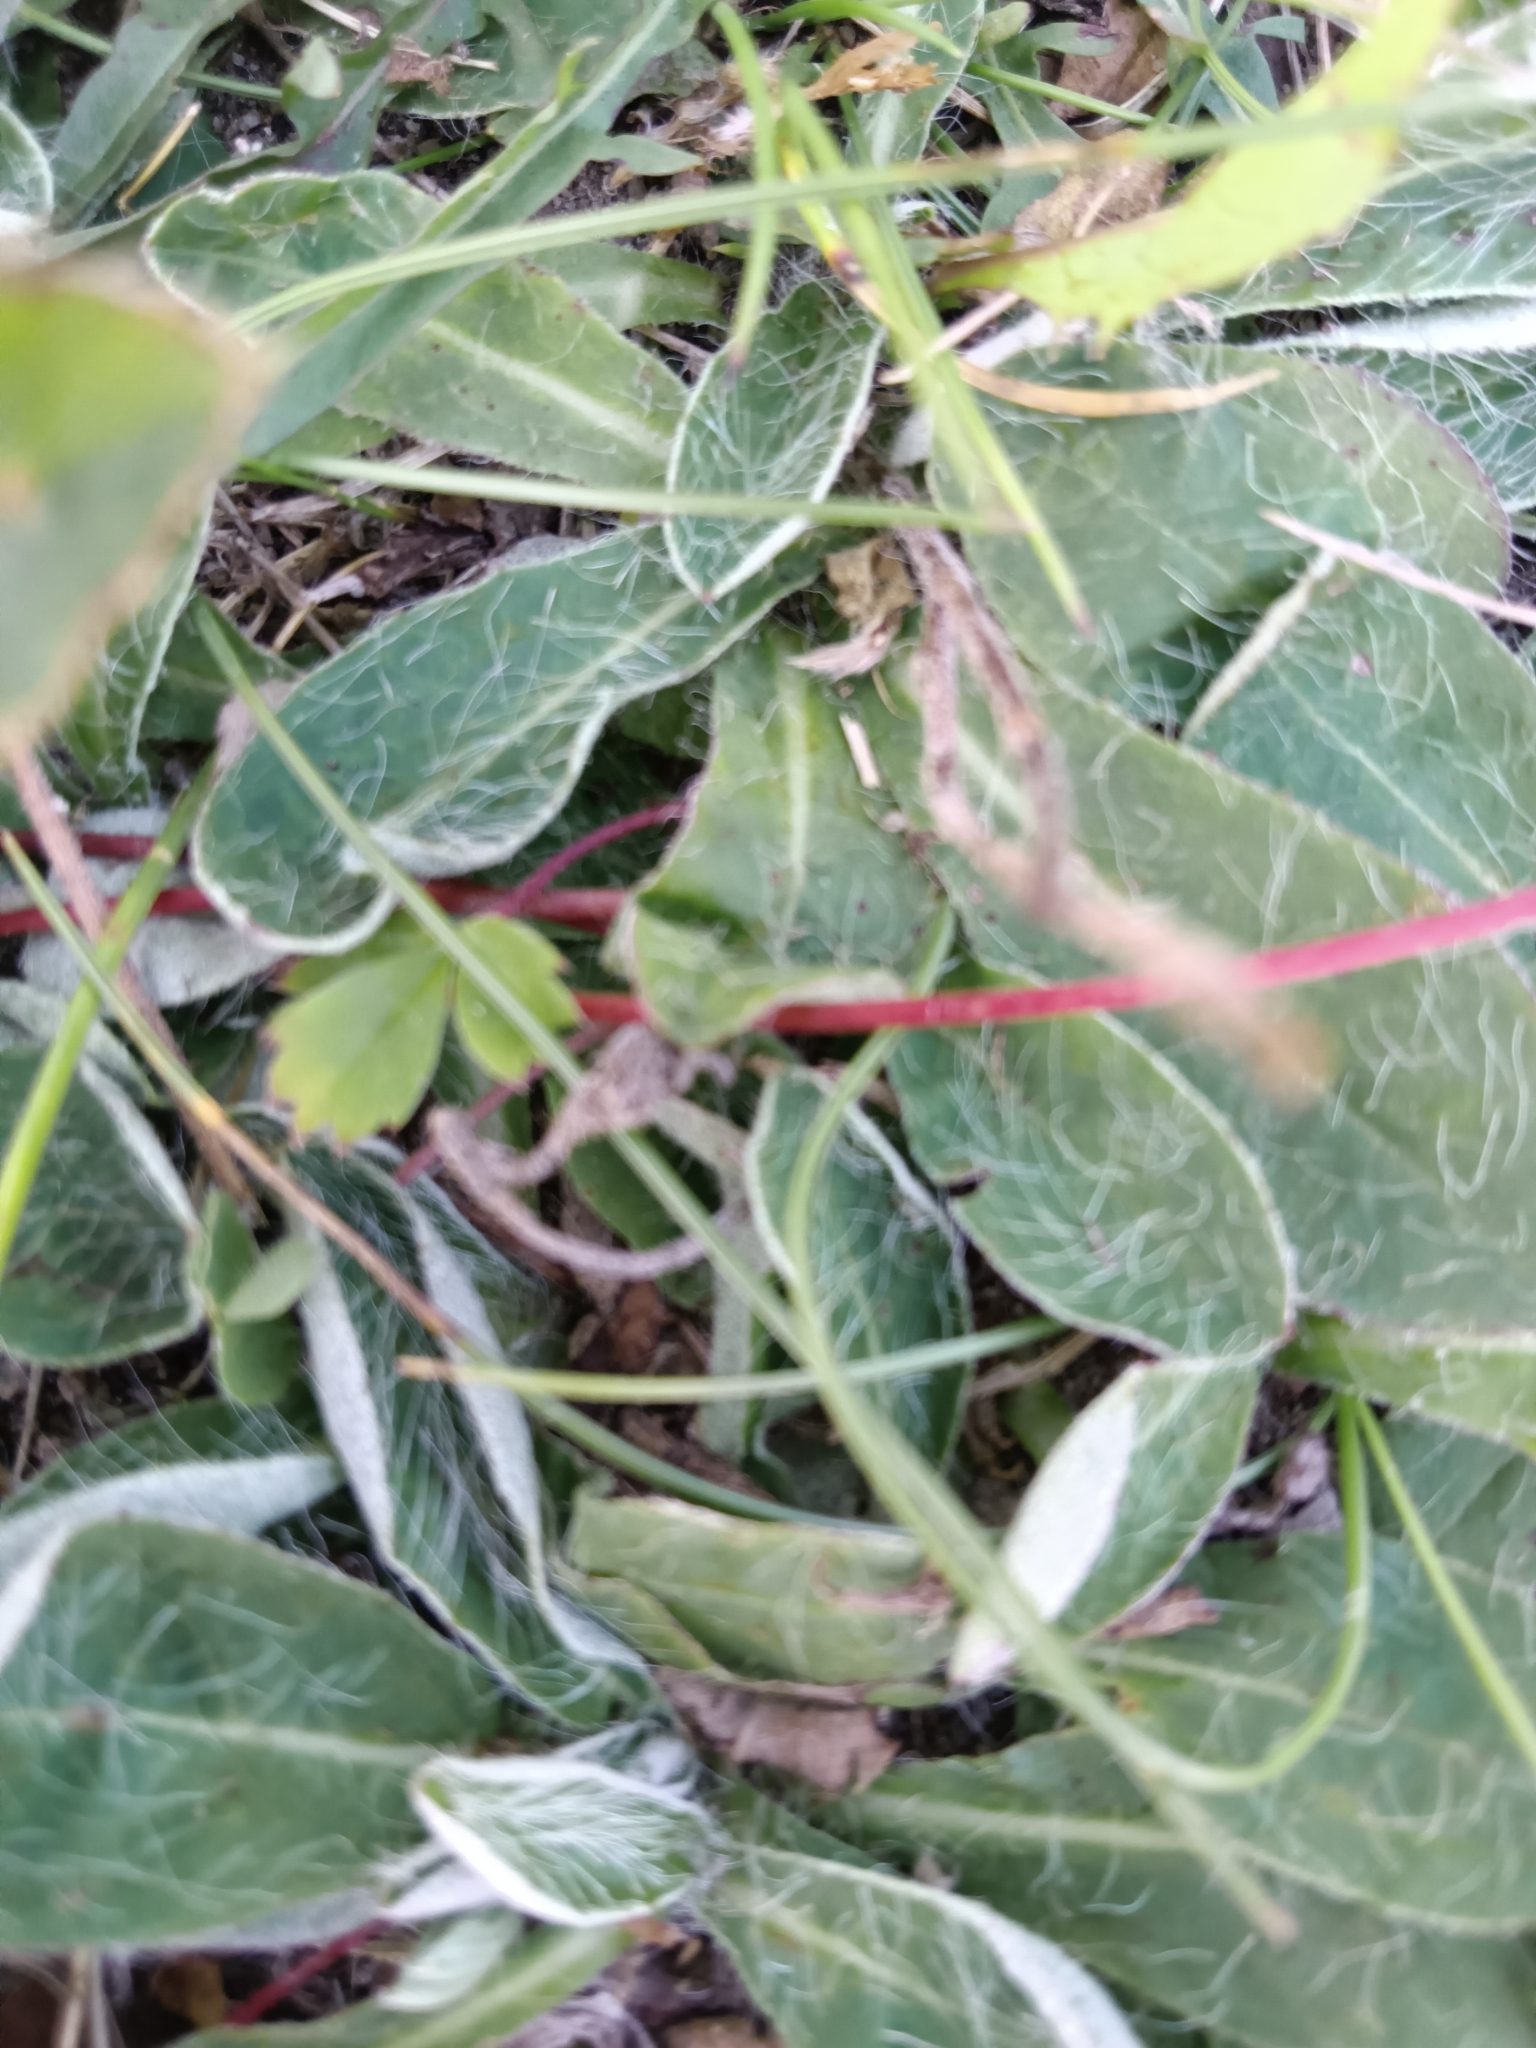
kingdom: Plantae
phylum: Tracheophyta
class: Magnoliopsida
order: Asterales
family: Asteraceae
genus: Pilosella
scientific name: Pilosella officinarum
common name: Mouse-ear hawkweed
